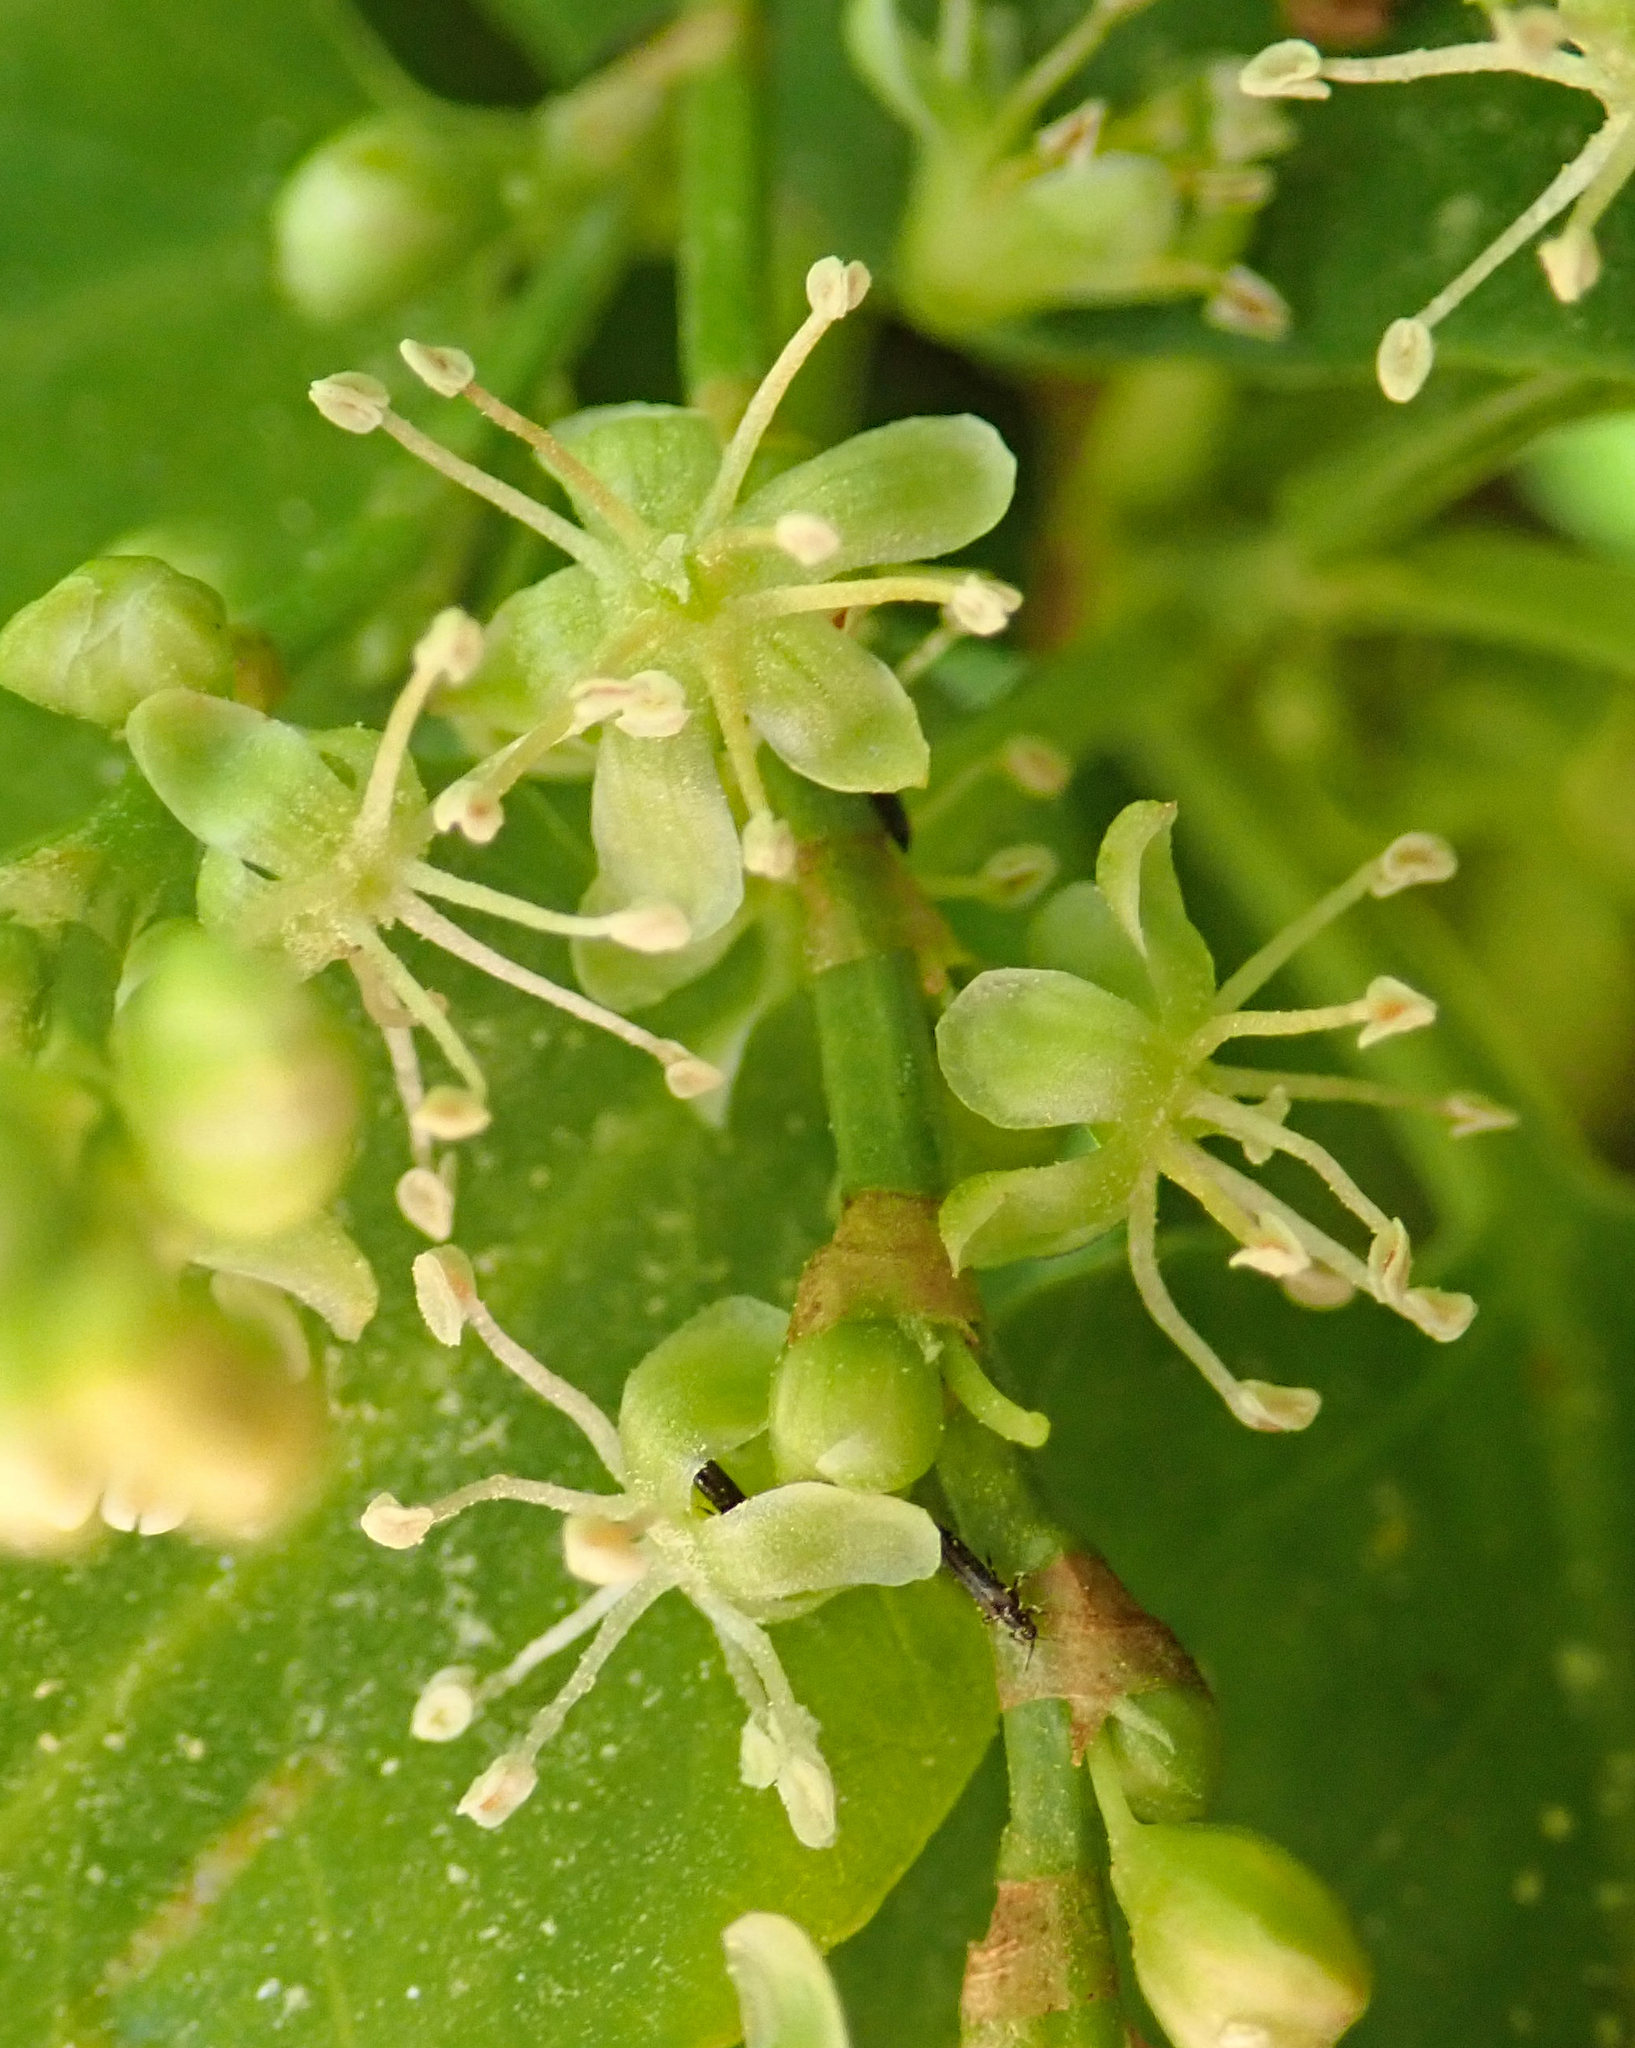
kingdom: Plantae
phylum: Tracheophyta
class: Magnoliopsida
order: Caryophyllales
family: Polygonaceae
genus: Muehlenbeckia
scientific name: Muehlenbeckia australis
